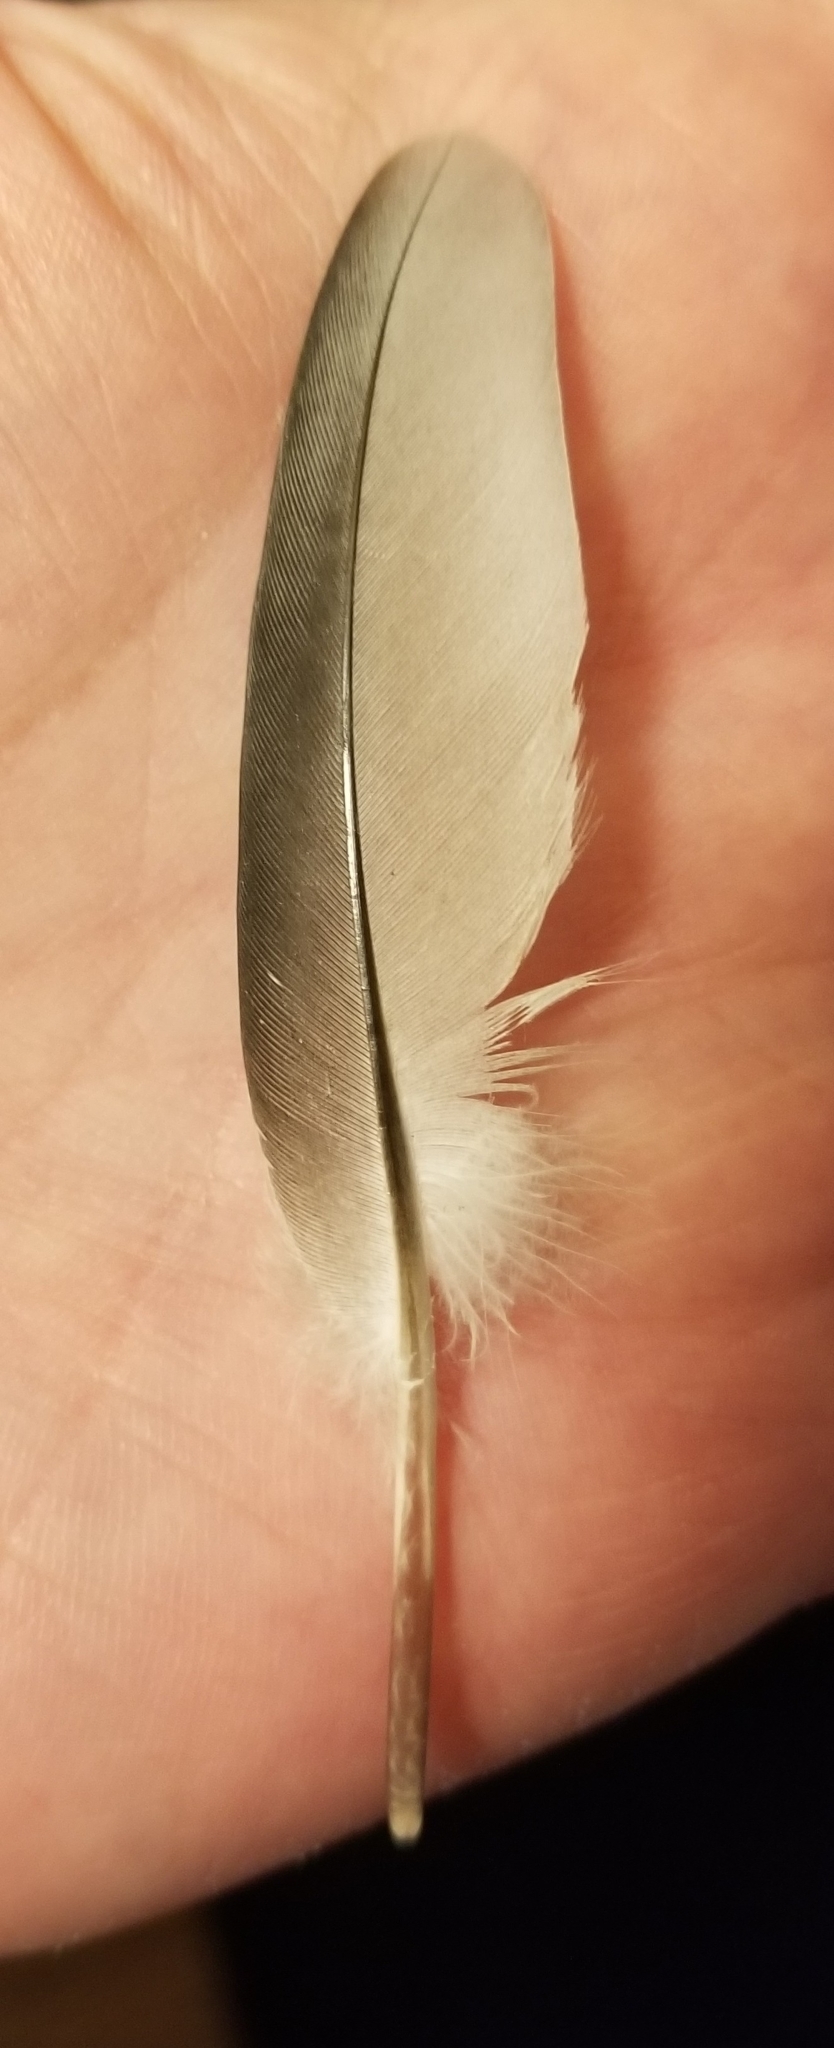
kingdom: Animalia
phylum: Chordata
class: Aves
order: Columbiformes
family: Columbidae
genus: Columba
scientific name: Columba livia
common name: Rock pigeon
